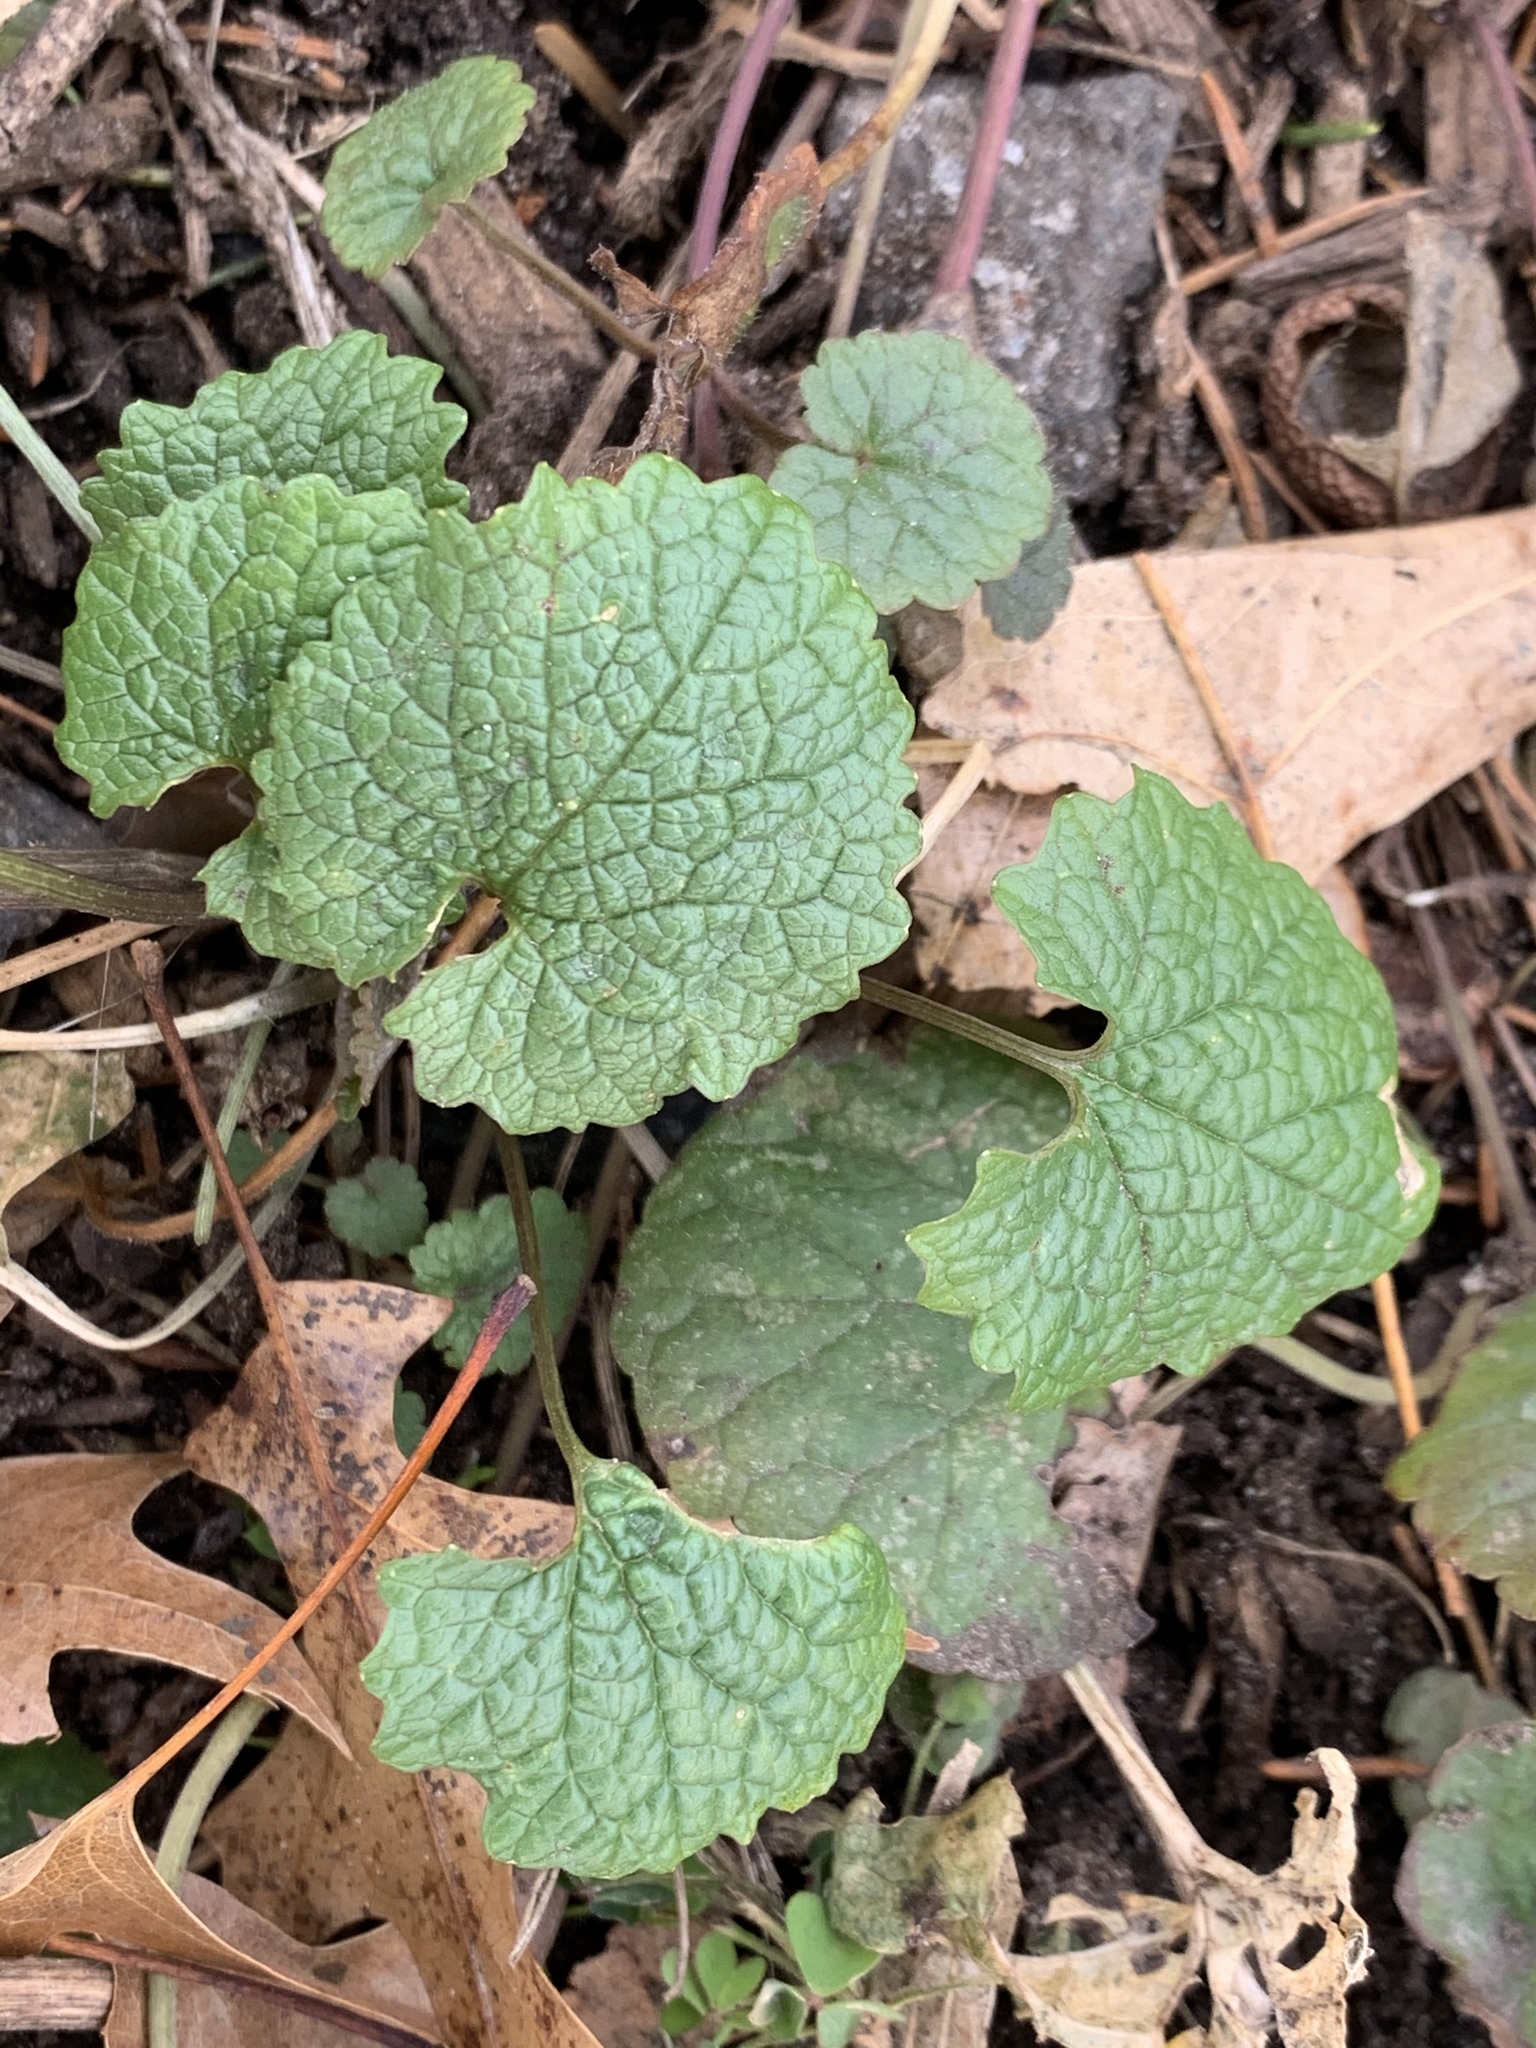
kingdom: Plantae
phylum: Tracheophyta
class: Magnoliopsida
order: Brassicales
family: Brassicaceae
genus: Alliaria
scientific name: Alliaria petiolata
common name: Garlic mustard
